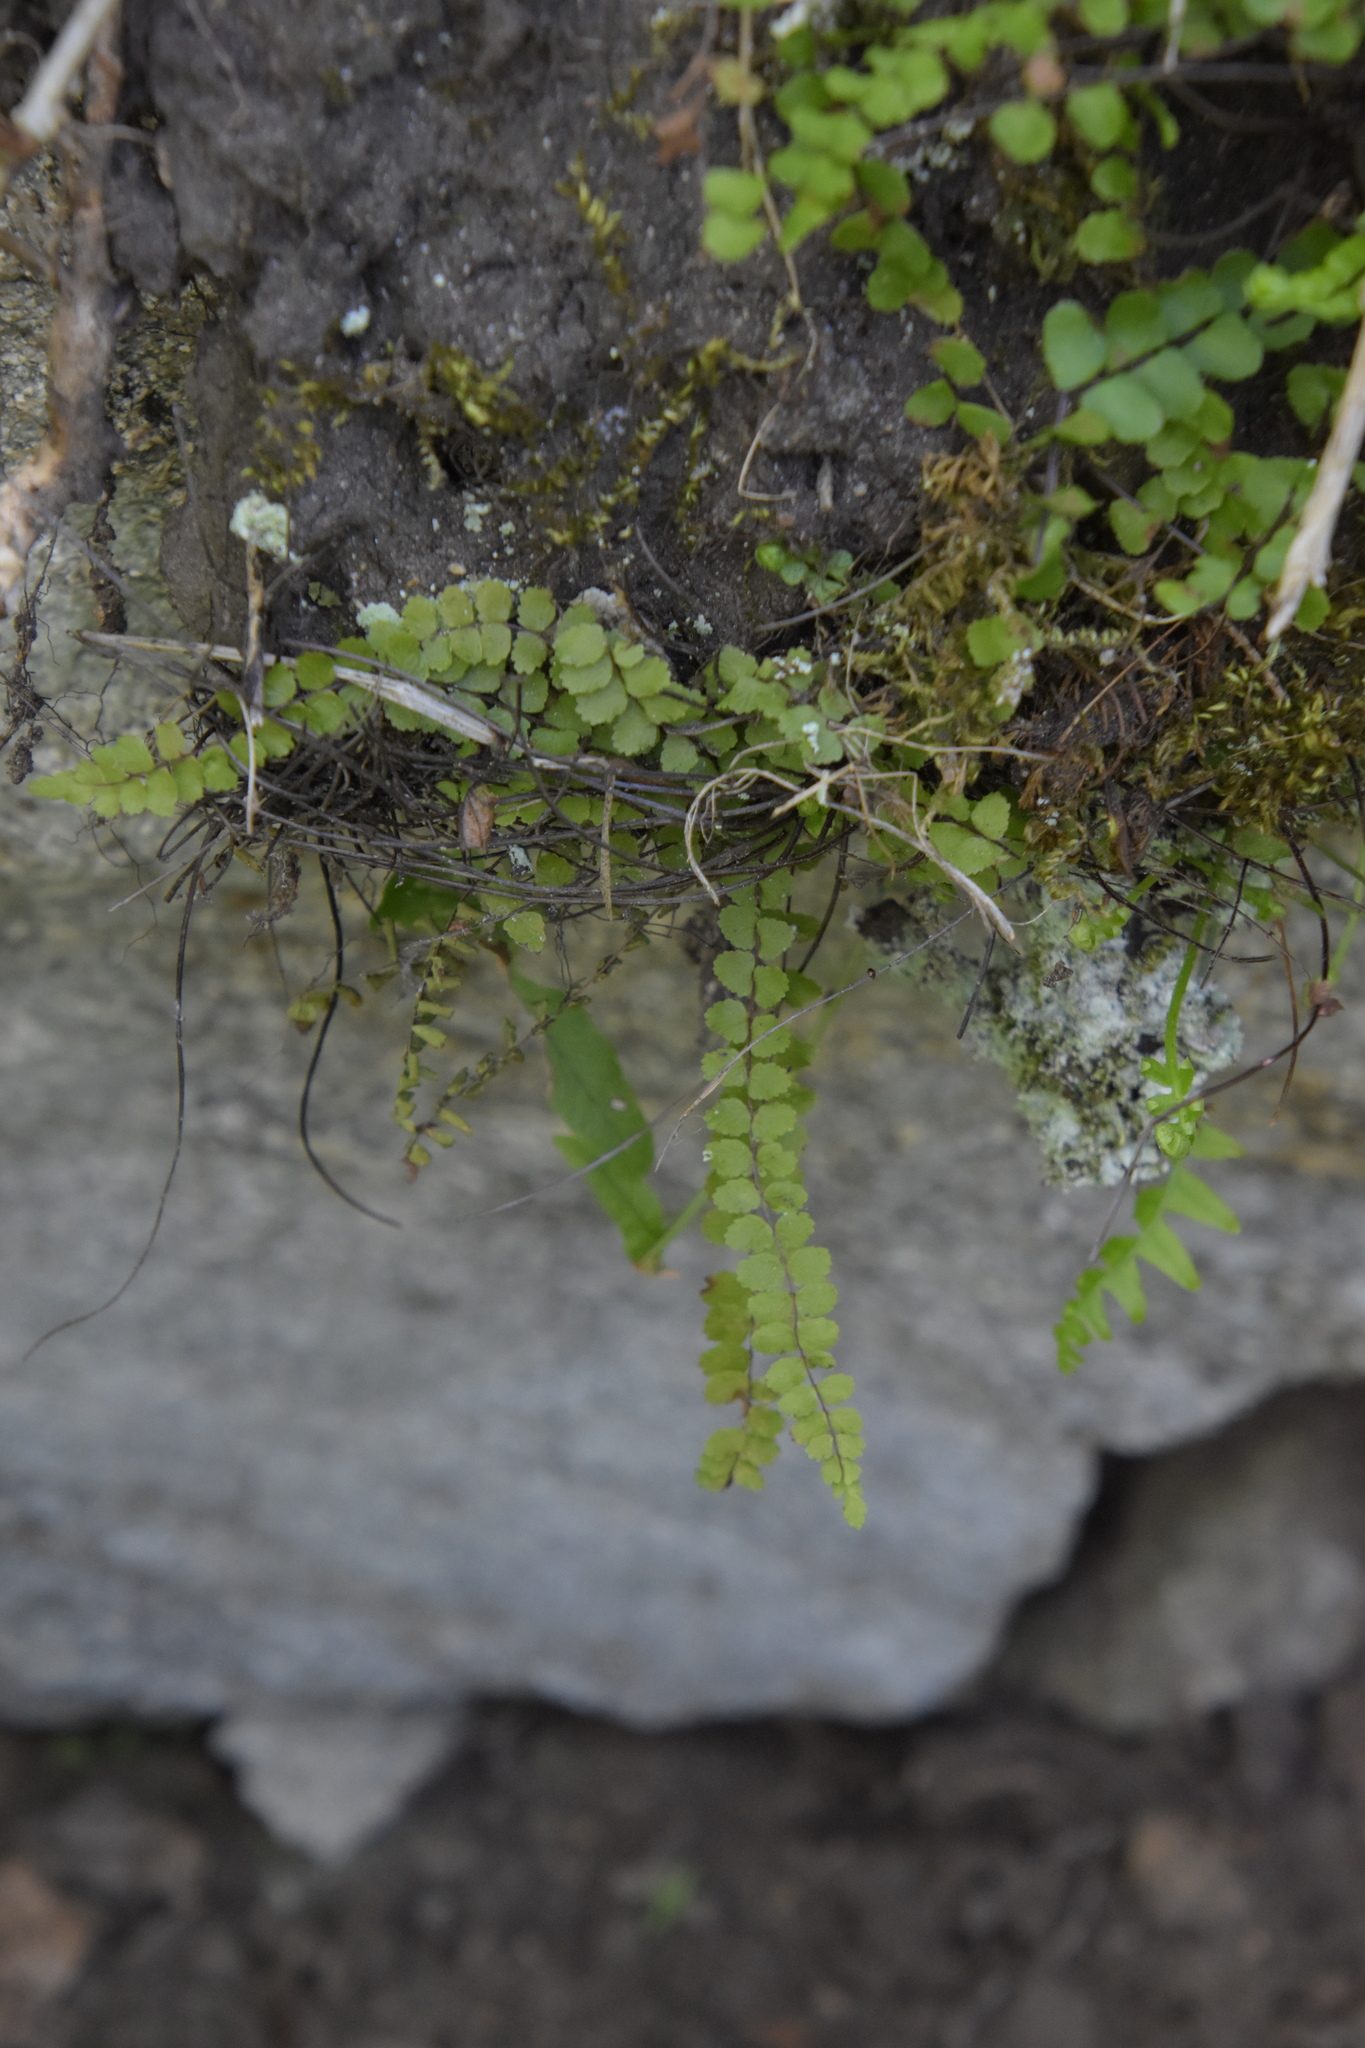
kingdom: Plantae
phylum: Tracheophyta
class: Polypodiopsida
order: Polypodiales
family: Aspleniaceae
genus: Asplenium
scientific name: Asplenium trichomanes
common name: Maidenhair spleenwort
